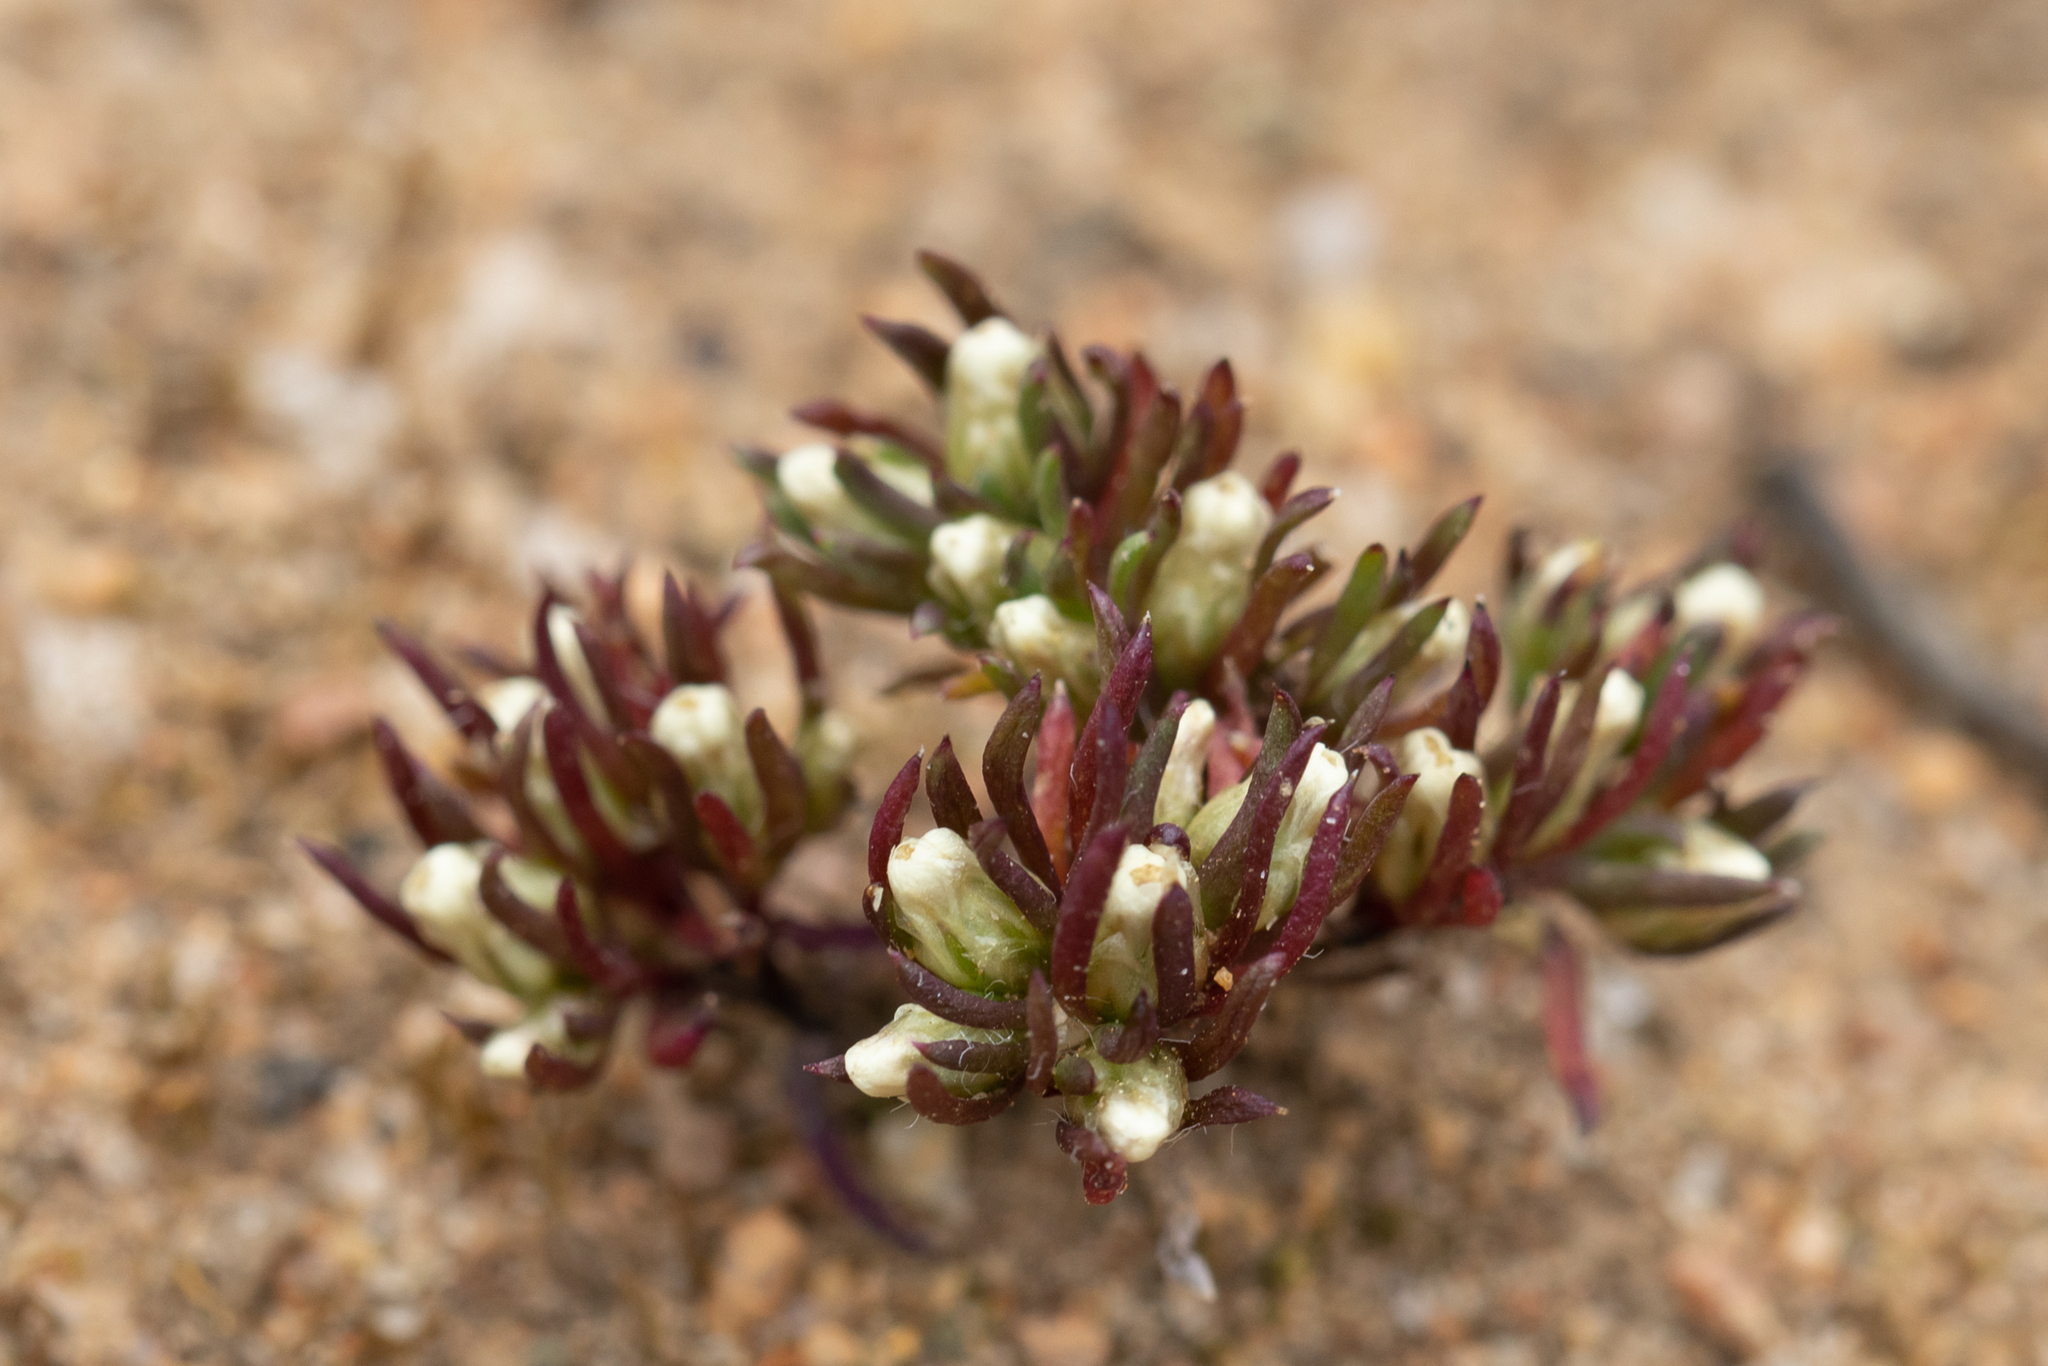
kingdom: Plantae
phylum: Tracheophyta
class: Magnoliopsida
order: Asterales
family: Asteraceae
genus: Hyalosperma
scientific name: Hyalosperma demissum
